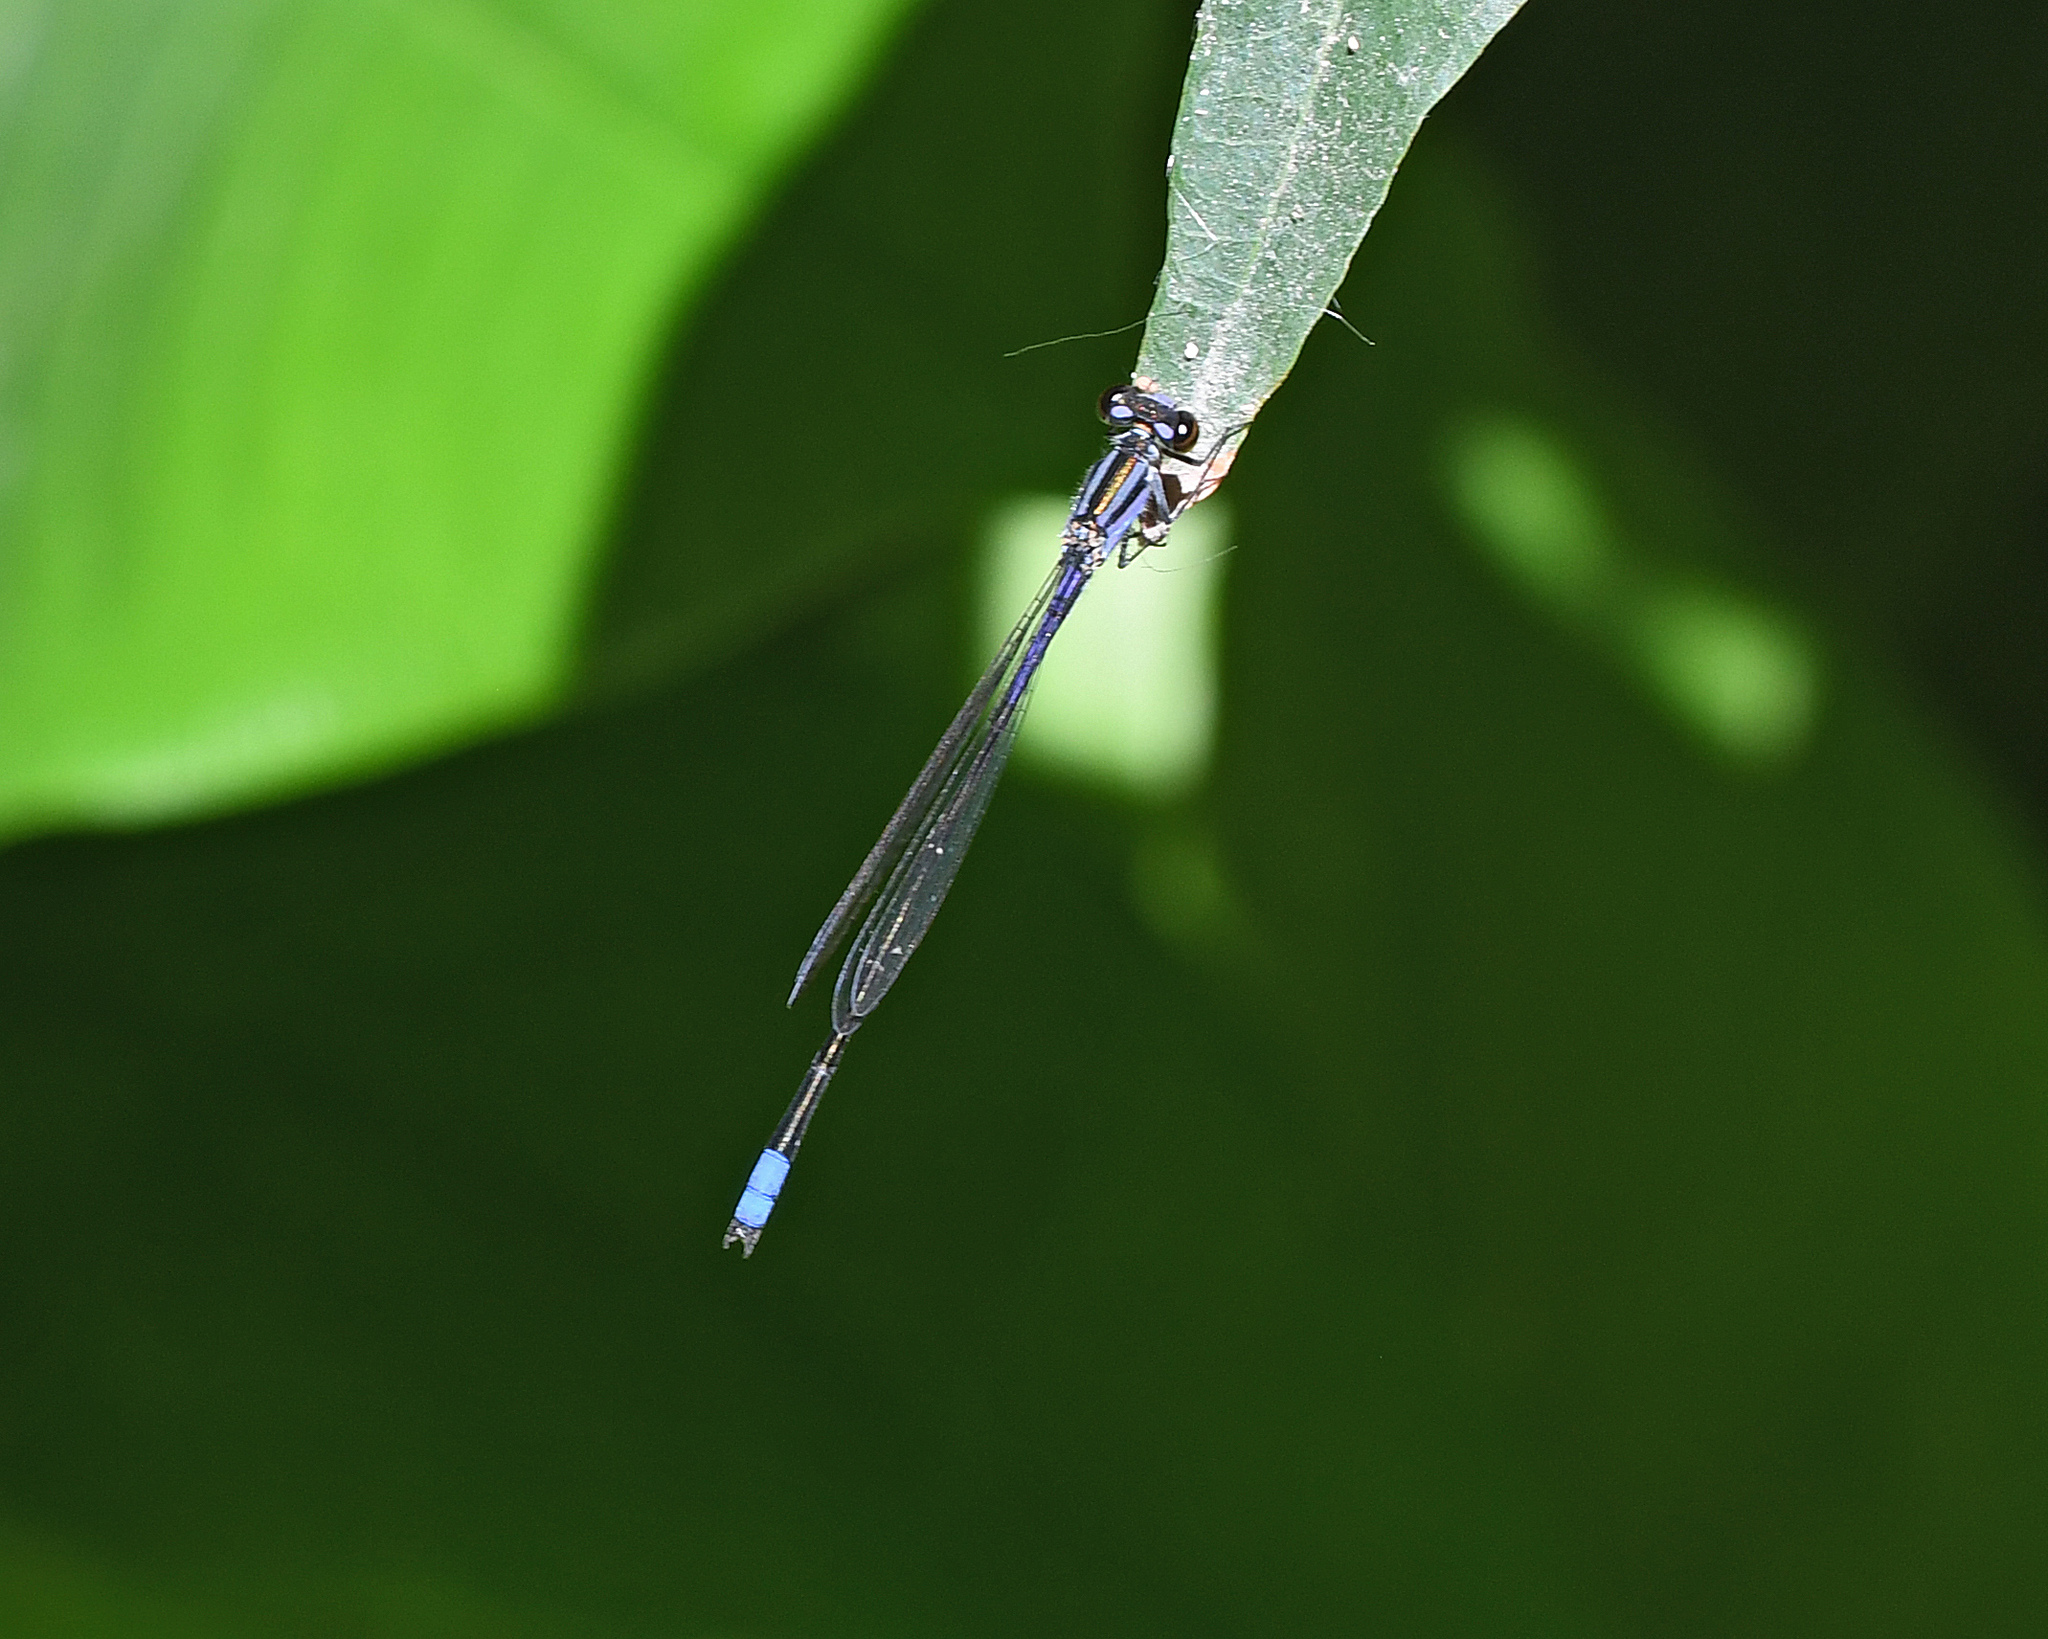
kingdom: Animalia
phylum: Arthropoda
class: Insecta
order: Odonata
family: Coenagrionidae
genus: Enallagma
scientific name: Enallagma coecum
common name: Antillean bluet
